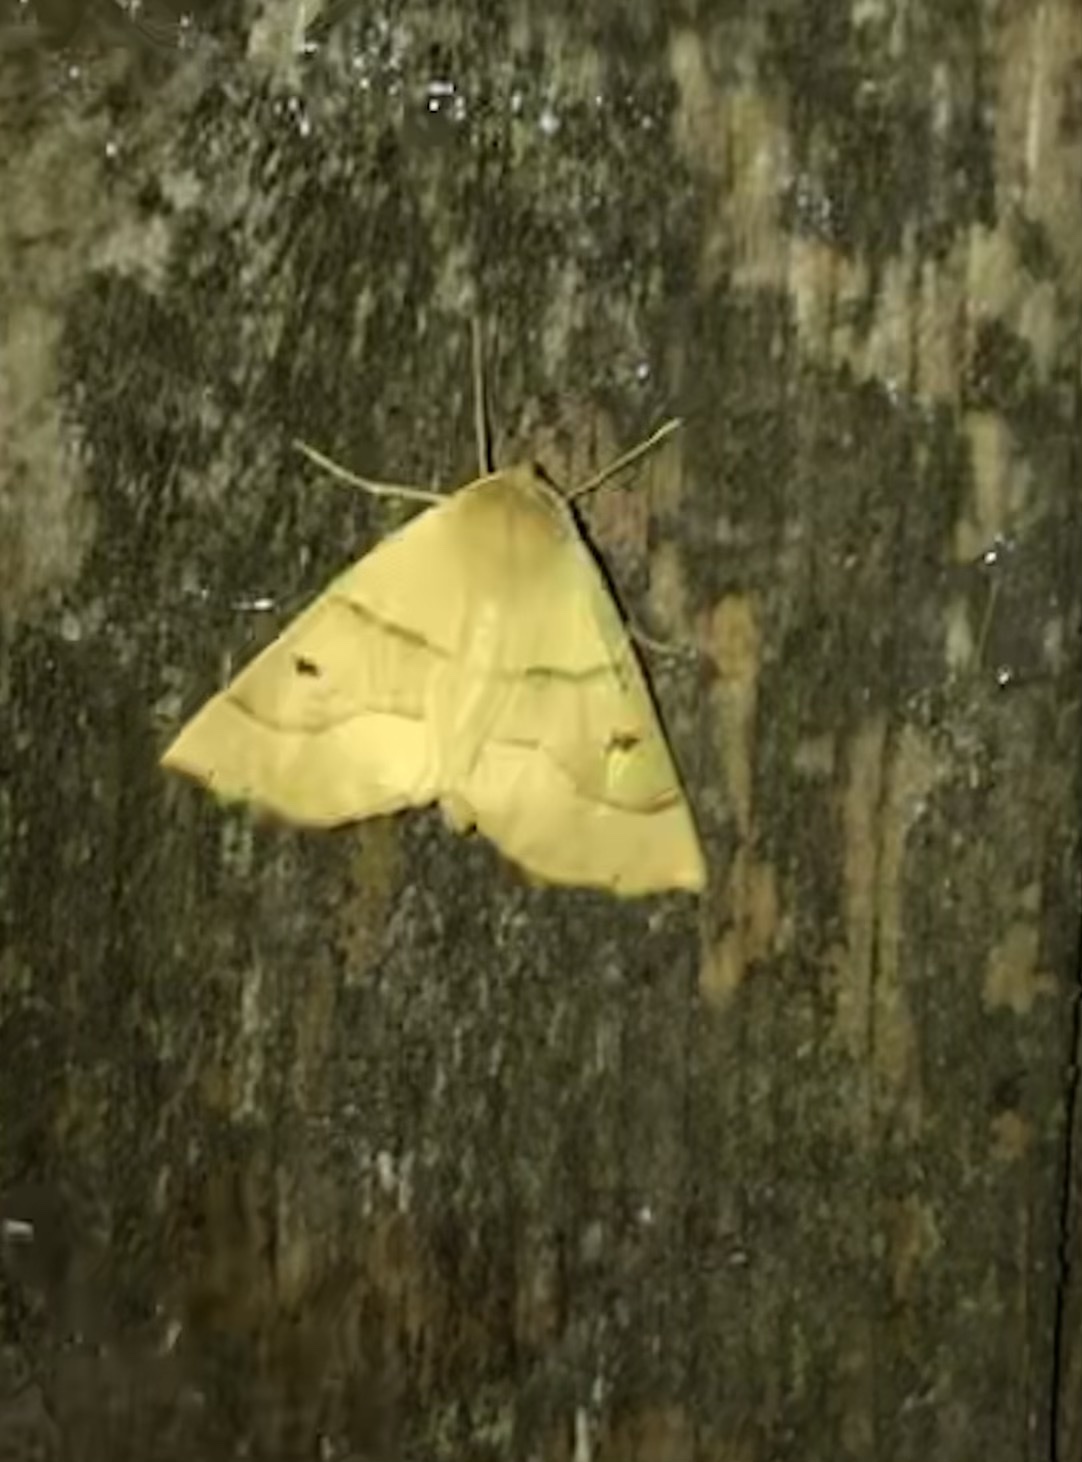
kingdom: Animalia
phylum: Arthropoda
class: Insecta
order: Lepidoptera
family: Geometridae
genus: Crocallis
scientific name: Crocallis elinguaria
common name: Scalloped oak
